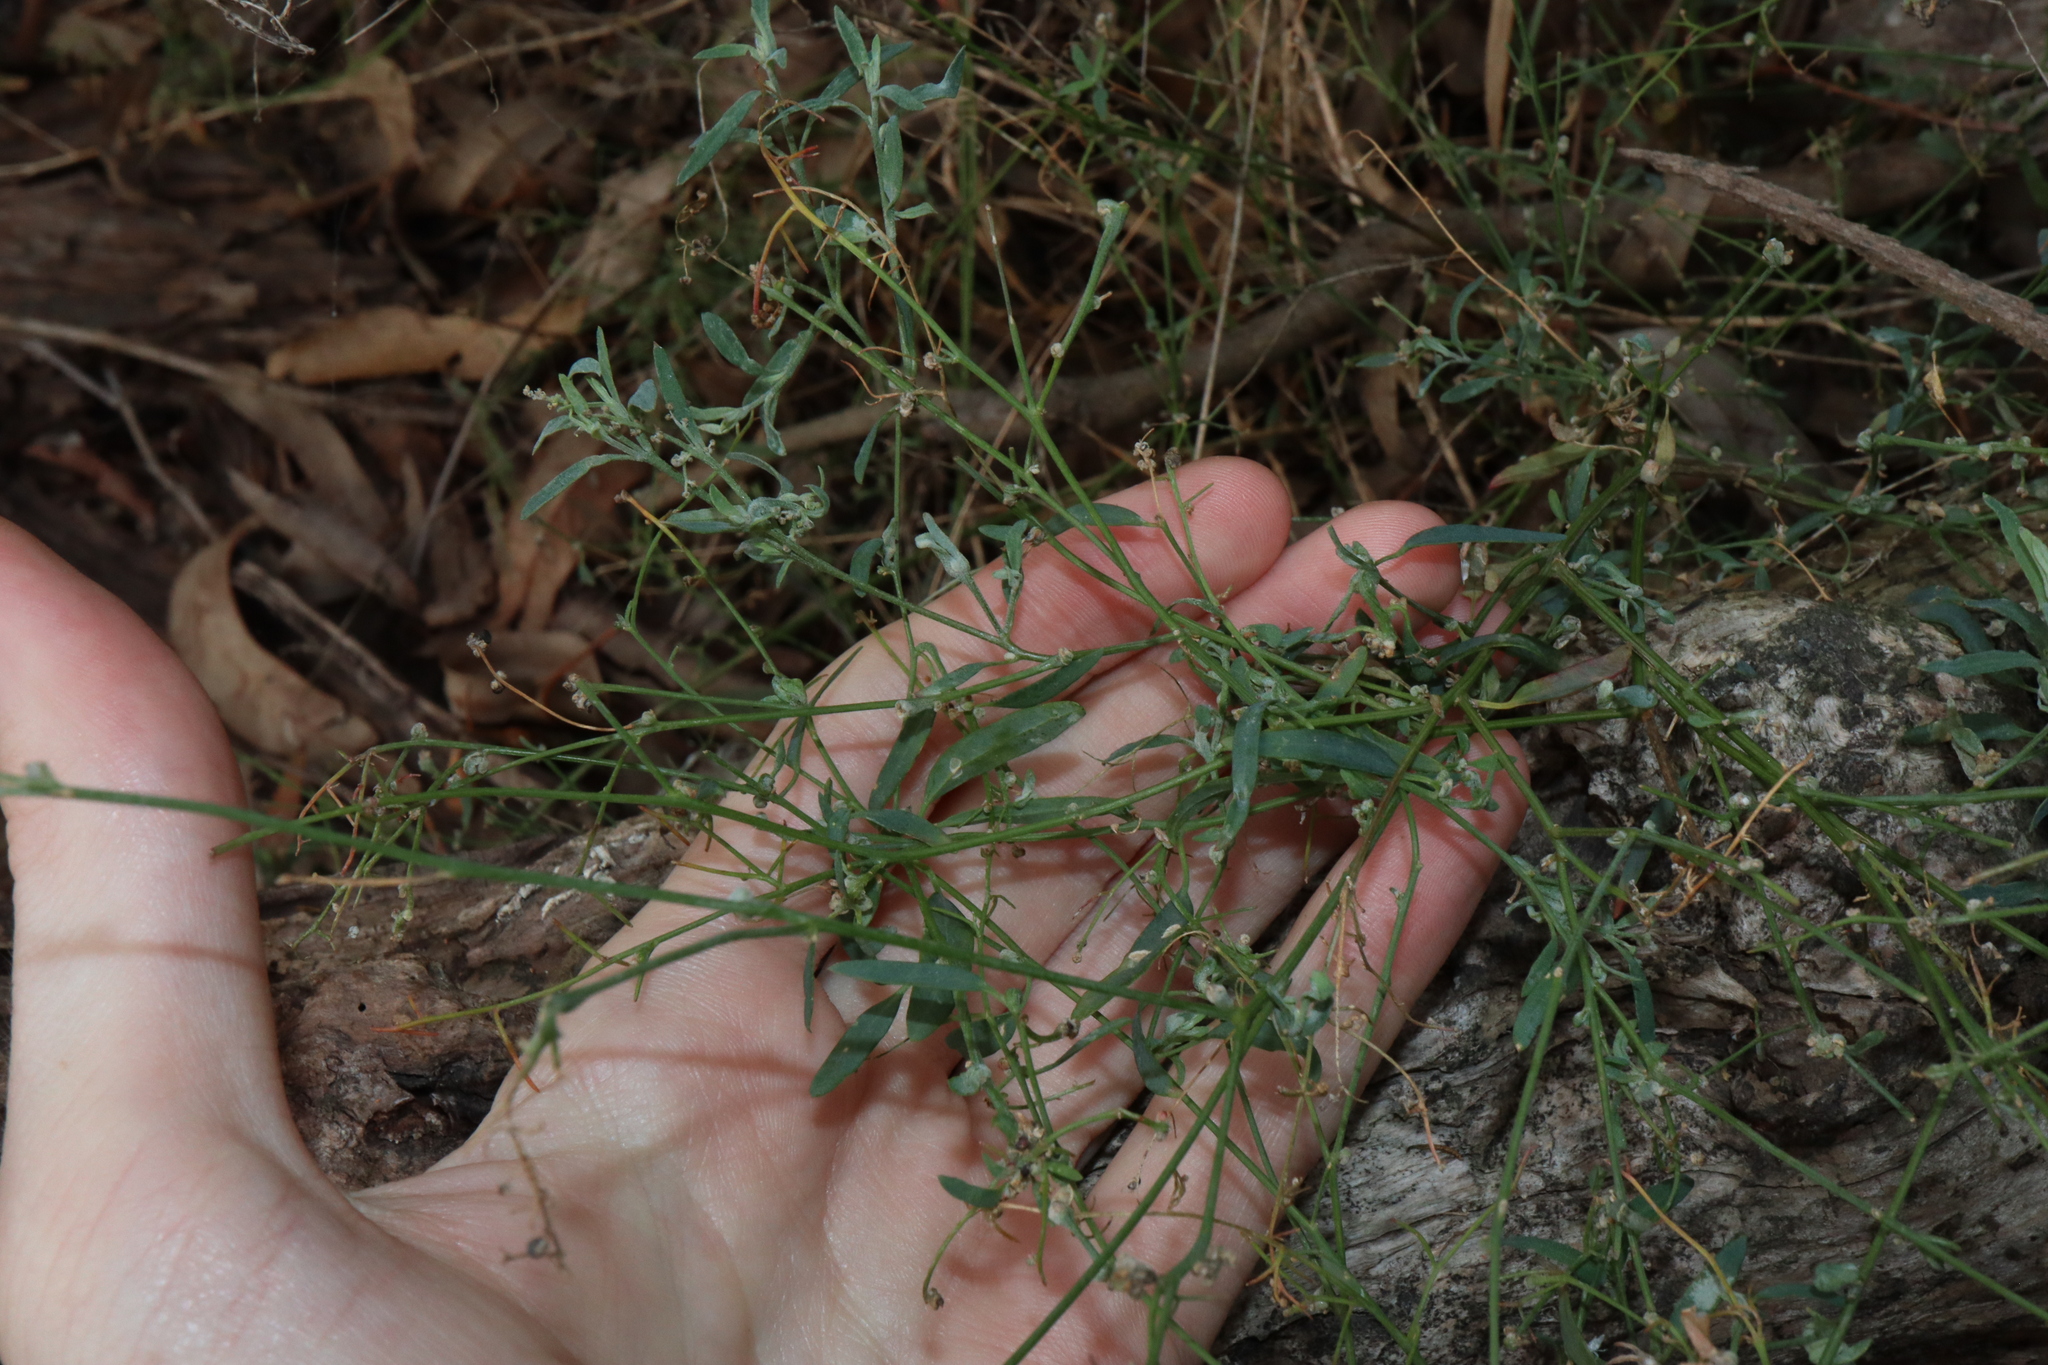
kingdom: Plantae
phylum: Tracheophyta
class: Magnoliopsida
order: Caryophyllales
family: Amaranthaceae
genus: Chenopodium
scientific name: Chenopodium nutans
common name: Climbing-saltbush
